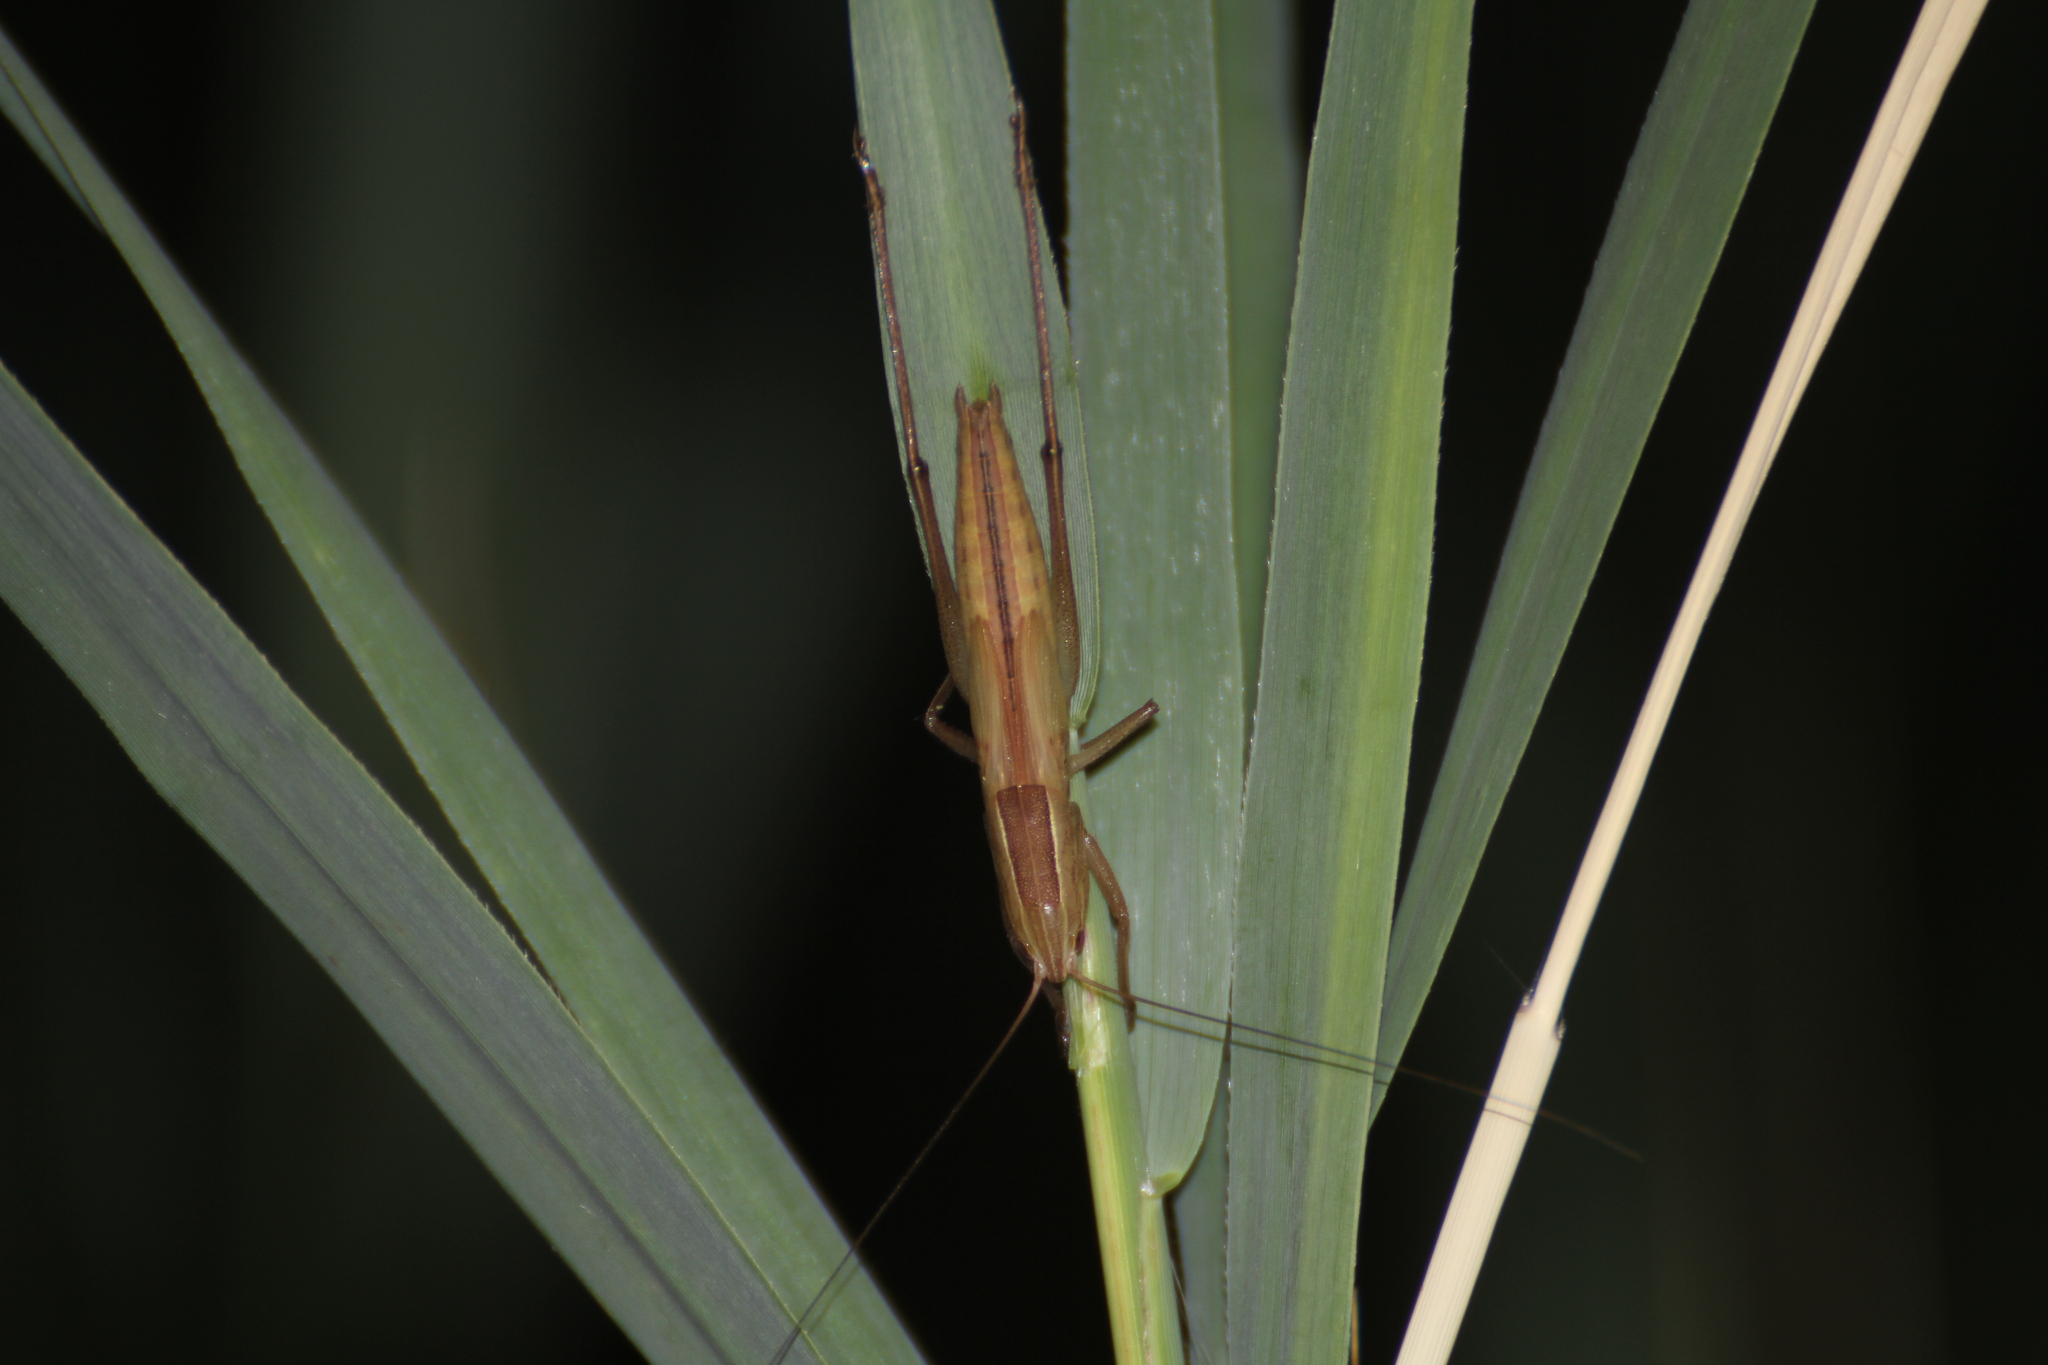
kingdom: Animalia
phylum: Arthropoda
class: Insecta
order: Orthoptera
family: Tettigoniidae
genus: Ruspolia
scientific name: Ruspolia nitidula
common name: Large conehead
